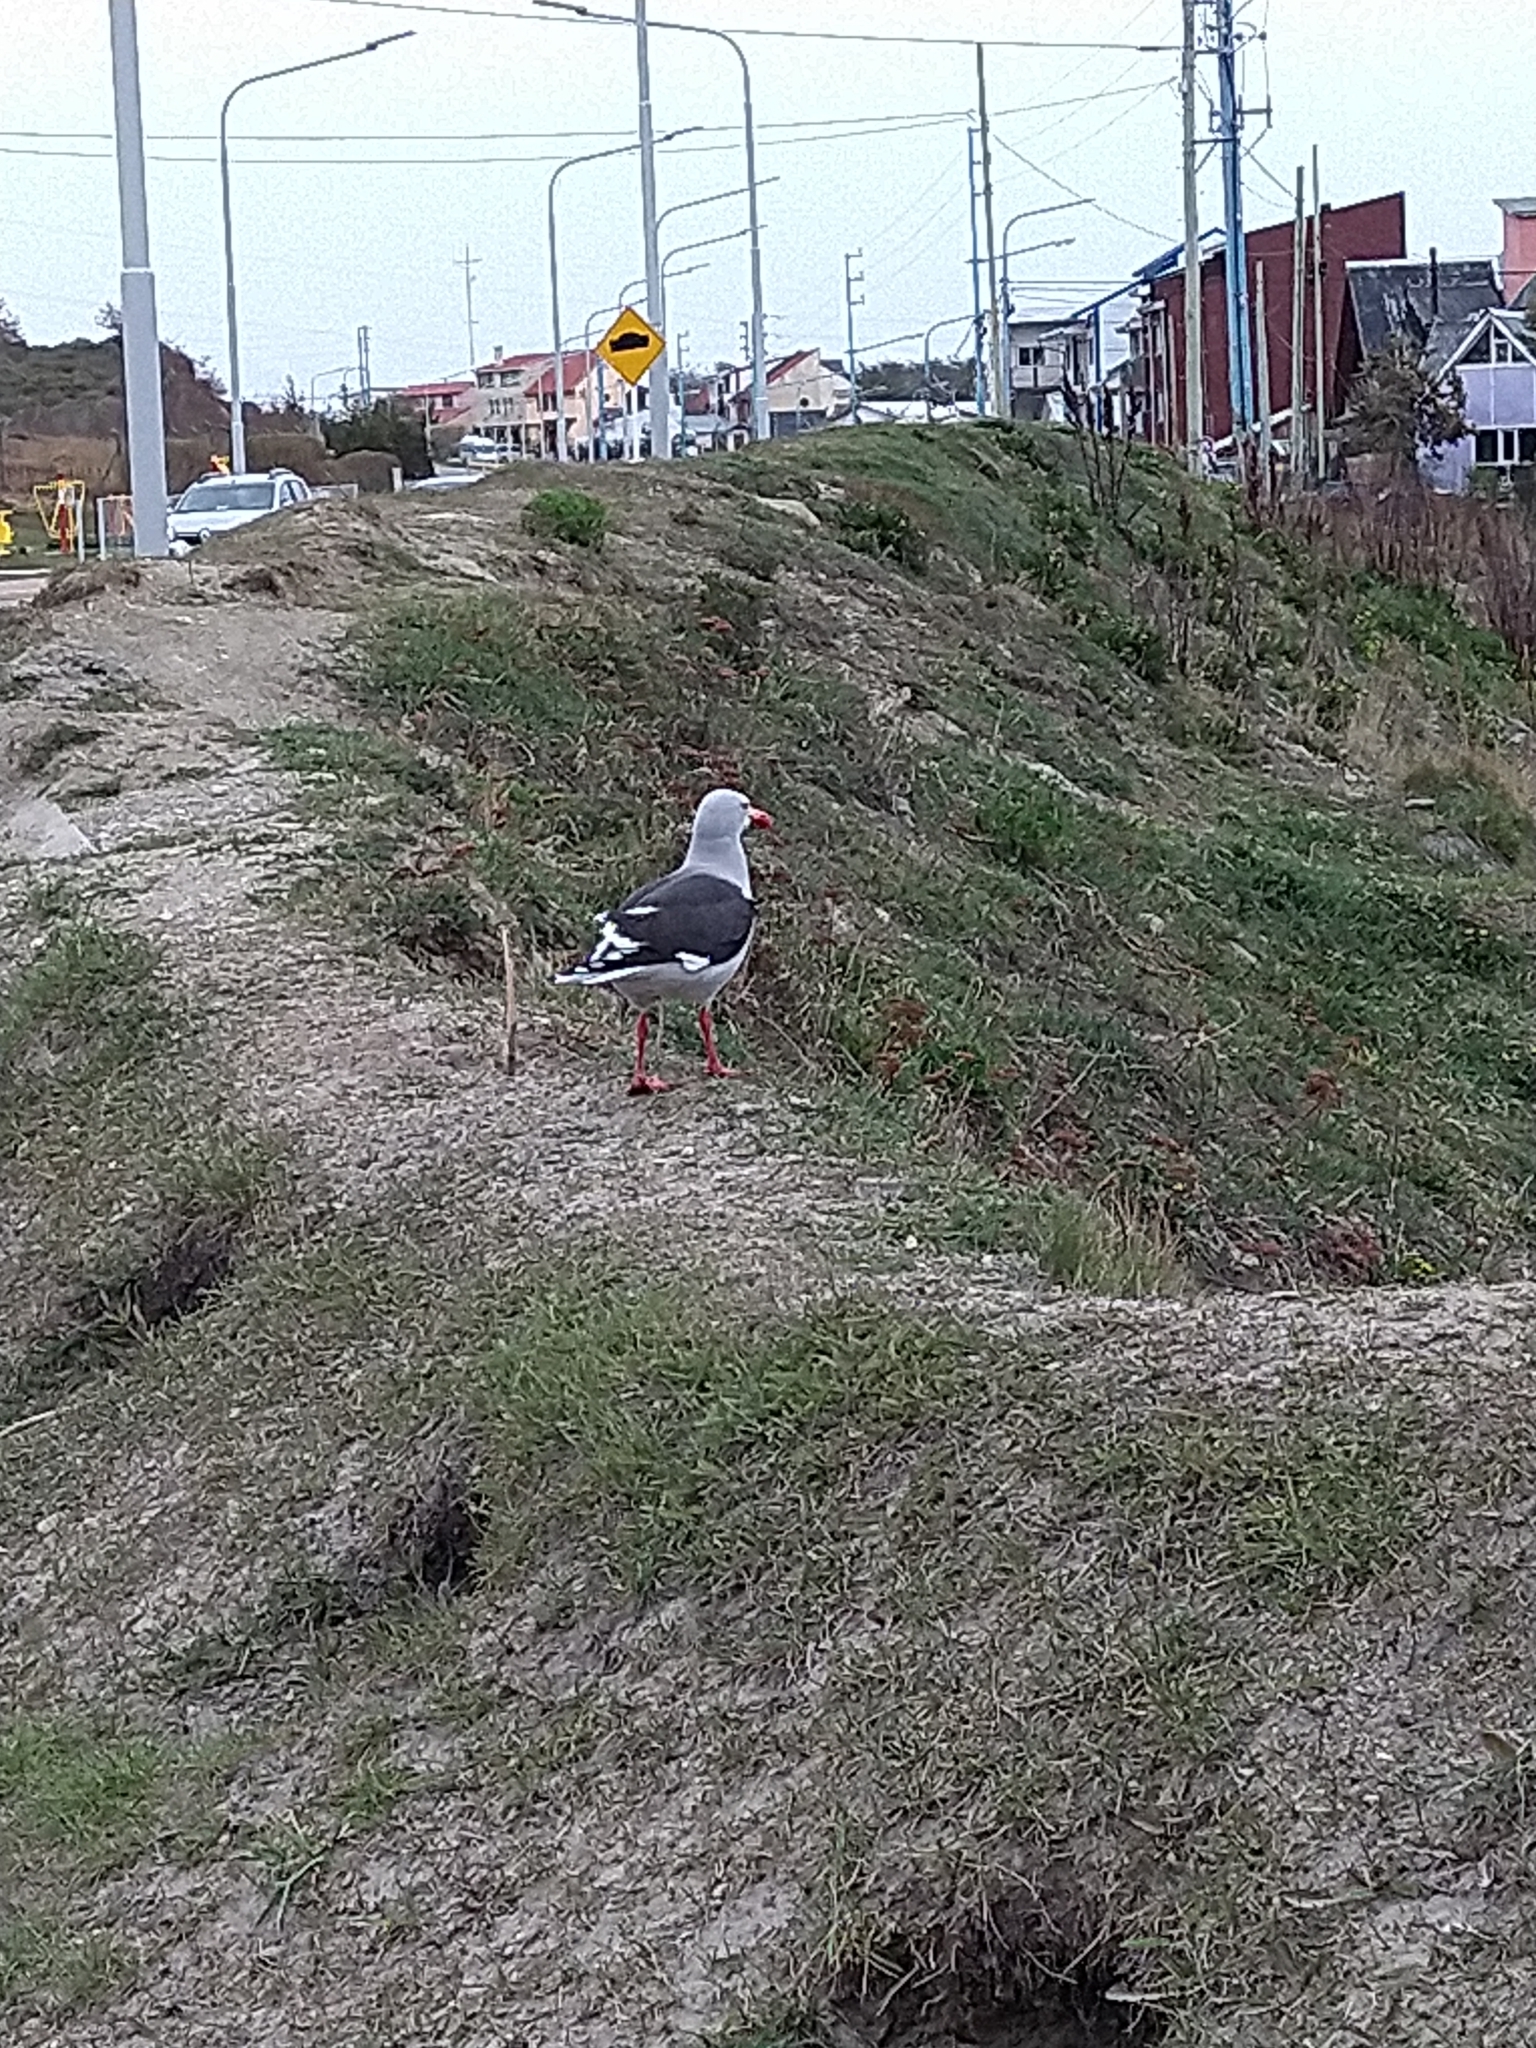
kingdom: Animalia
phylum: Chordata
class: Aves
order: Charadriiformes
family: Laridae
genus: Leucophaeus
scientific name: Leucophaeus scoresbii
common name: Dolphin gull
